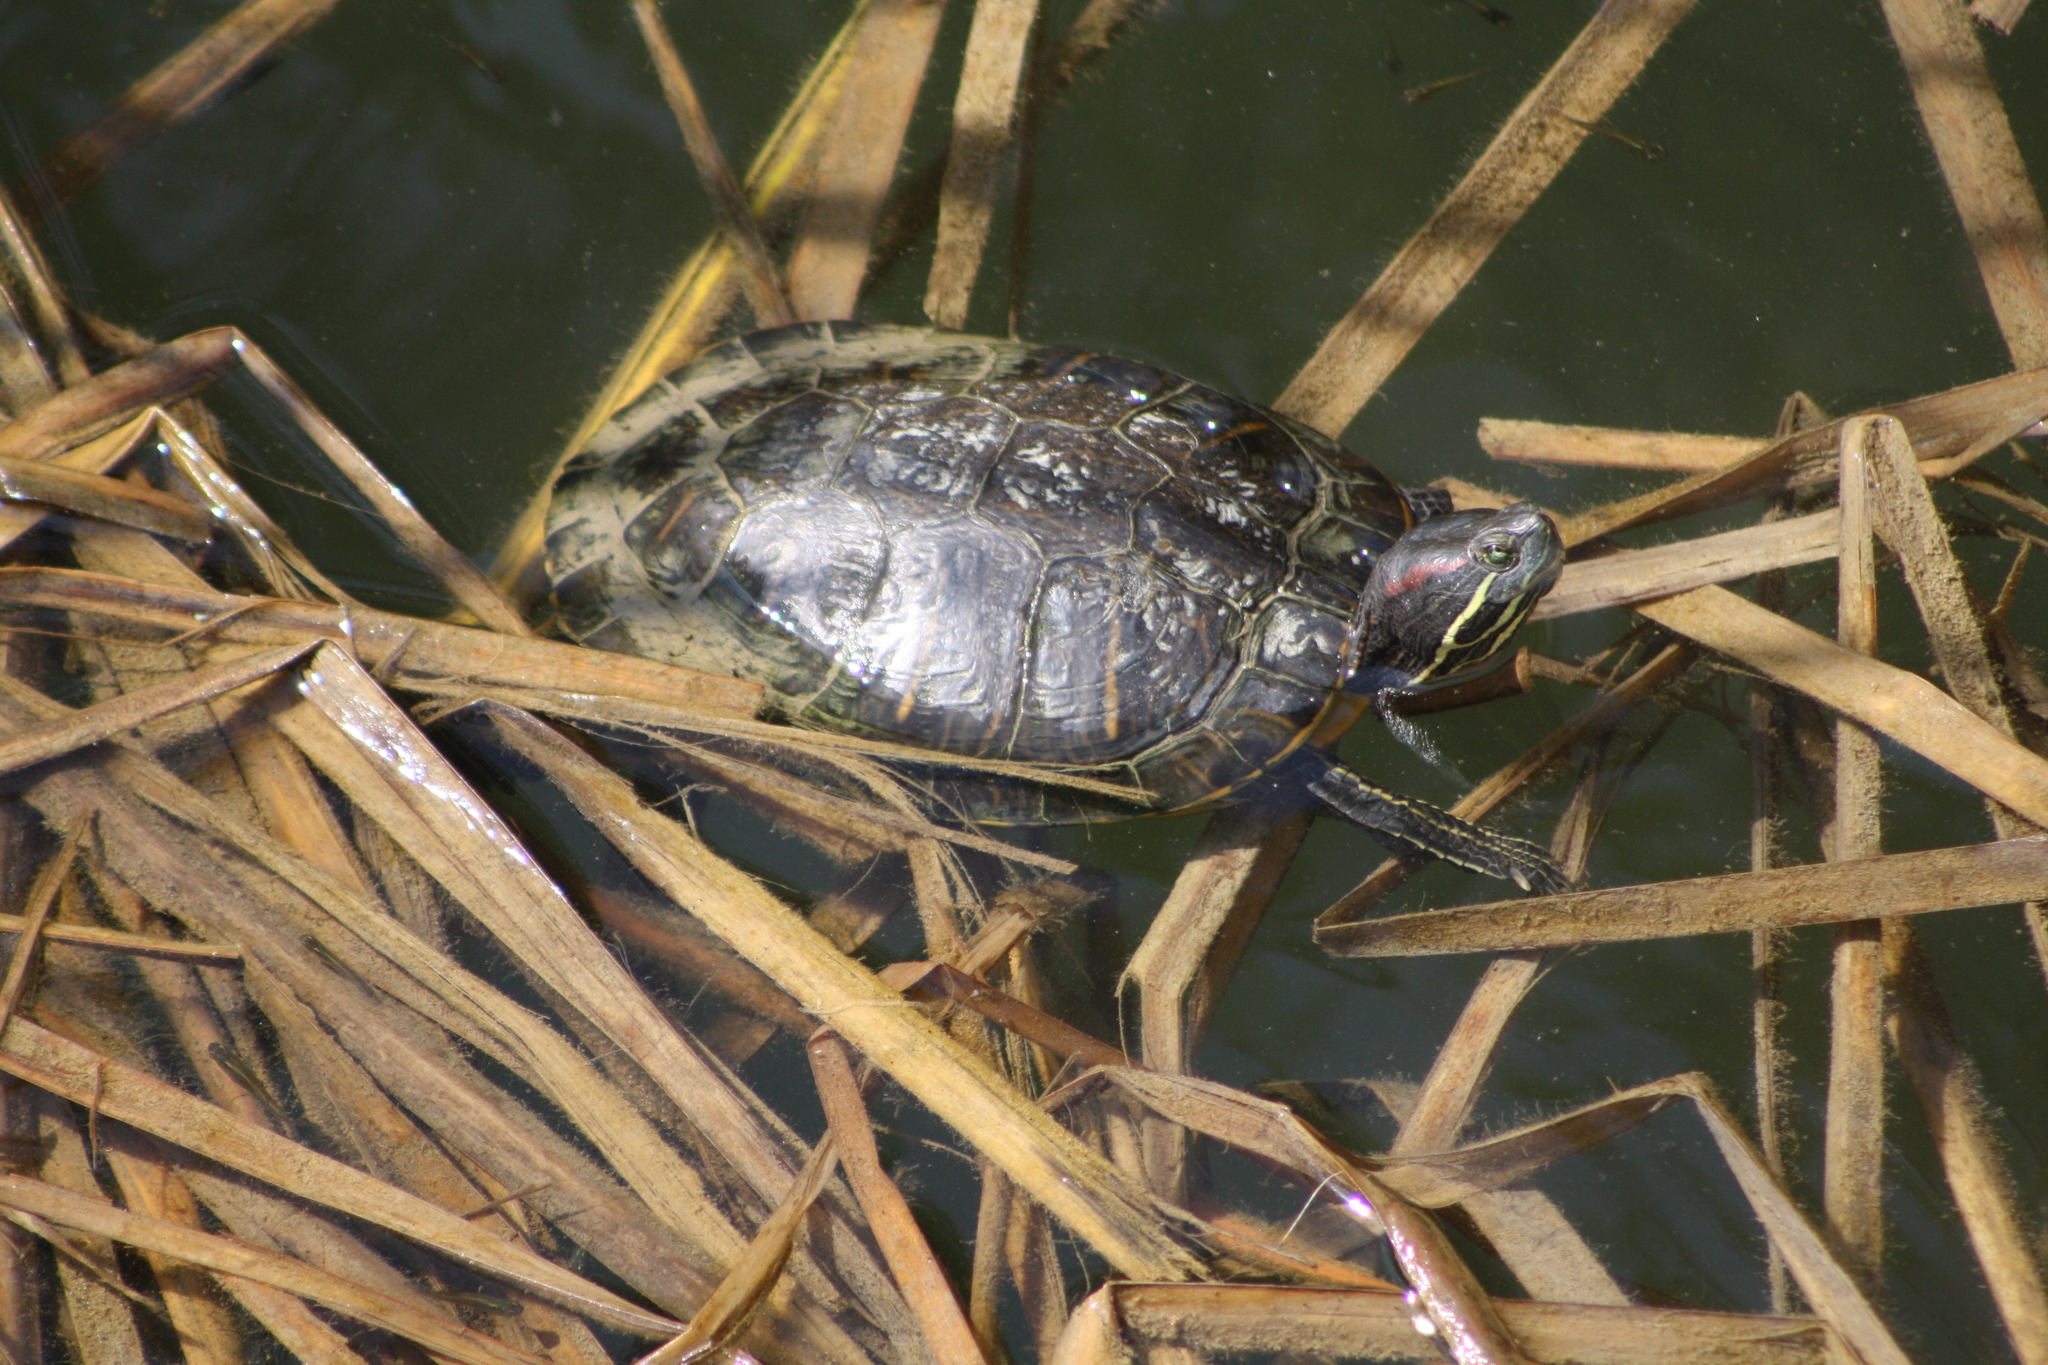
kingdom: Animalia
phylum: Chordata
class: Testudines
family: Emydidae
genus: Trachemys
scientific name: Trachemys scripta
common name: Slider
